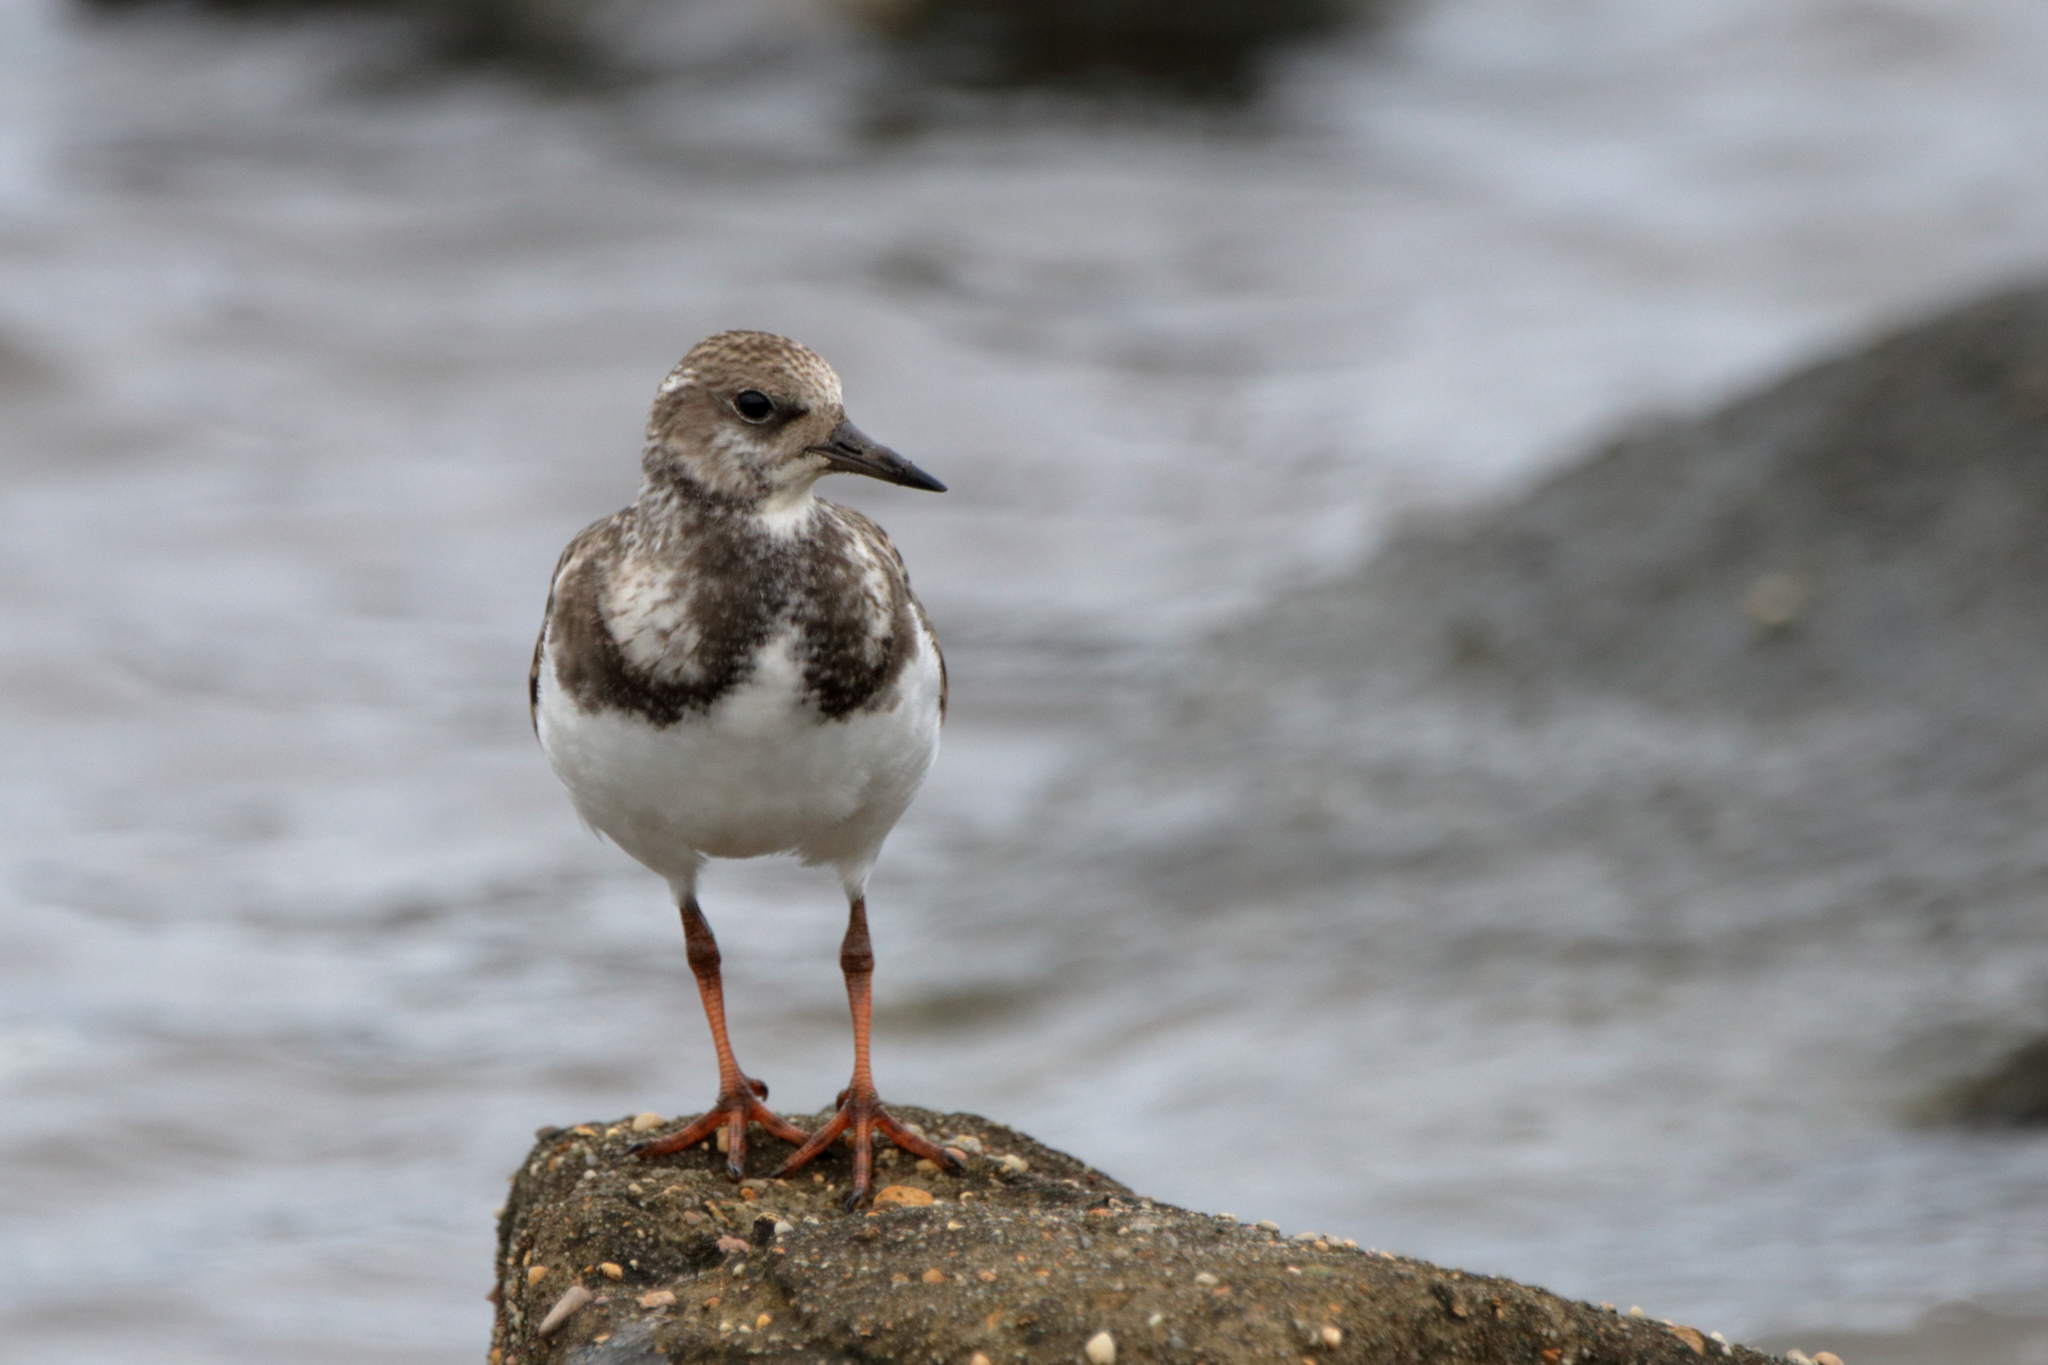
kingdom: Animalia
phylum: Chordata
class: Aves
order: Charadriiformes
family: Scolopacidae
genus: Arenaria
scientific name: Arenaria interpres
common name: Ruddy turnstone
